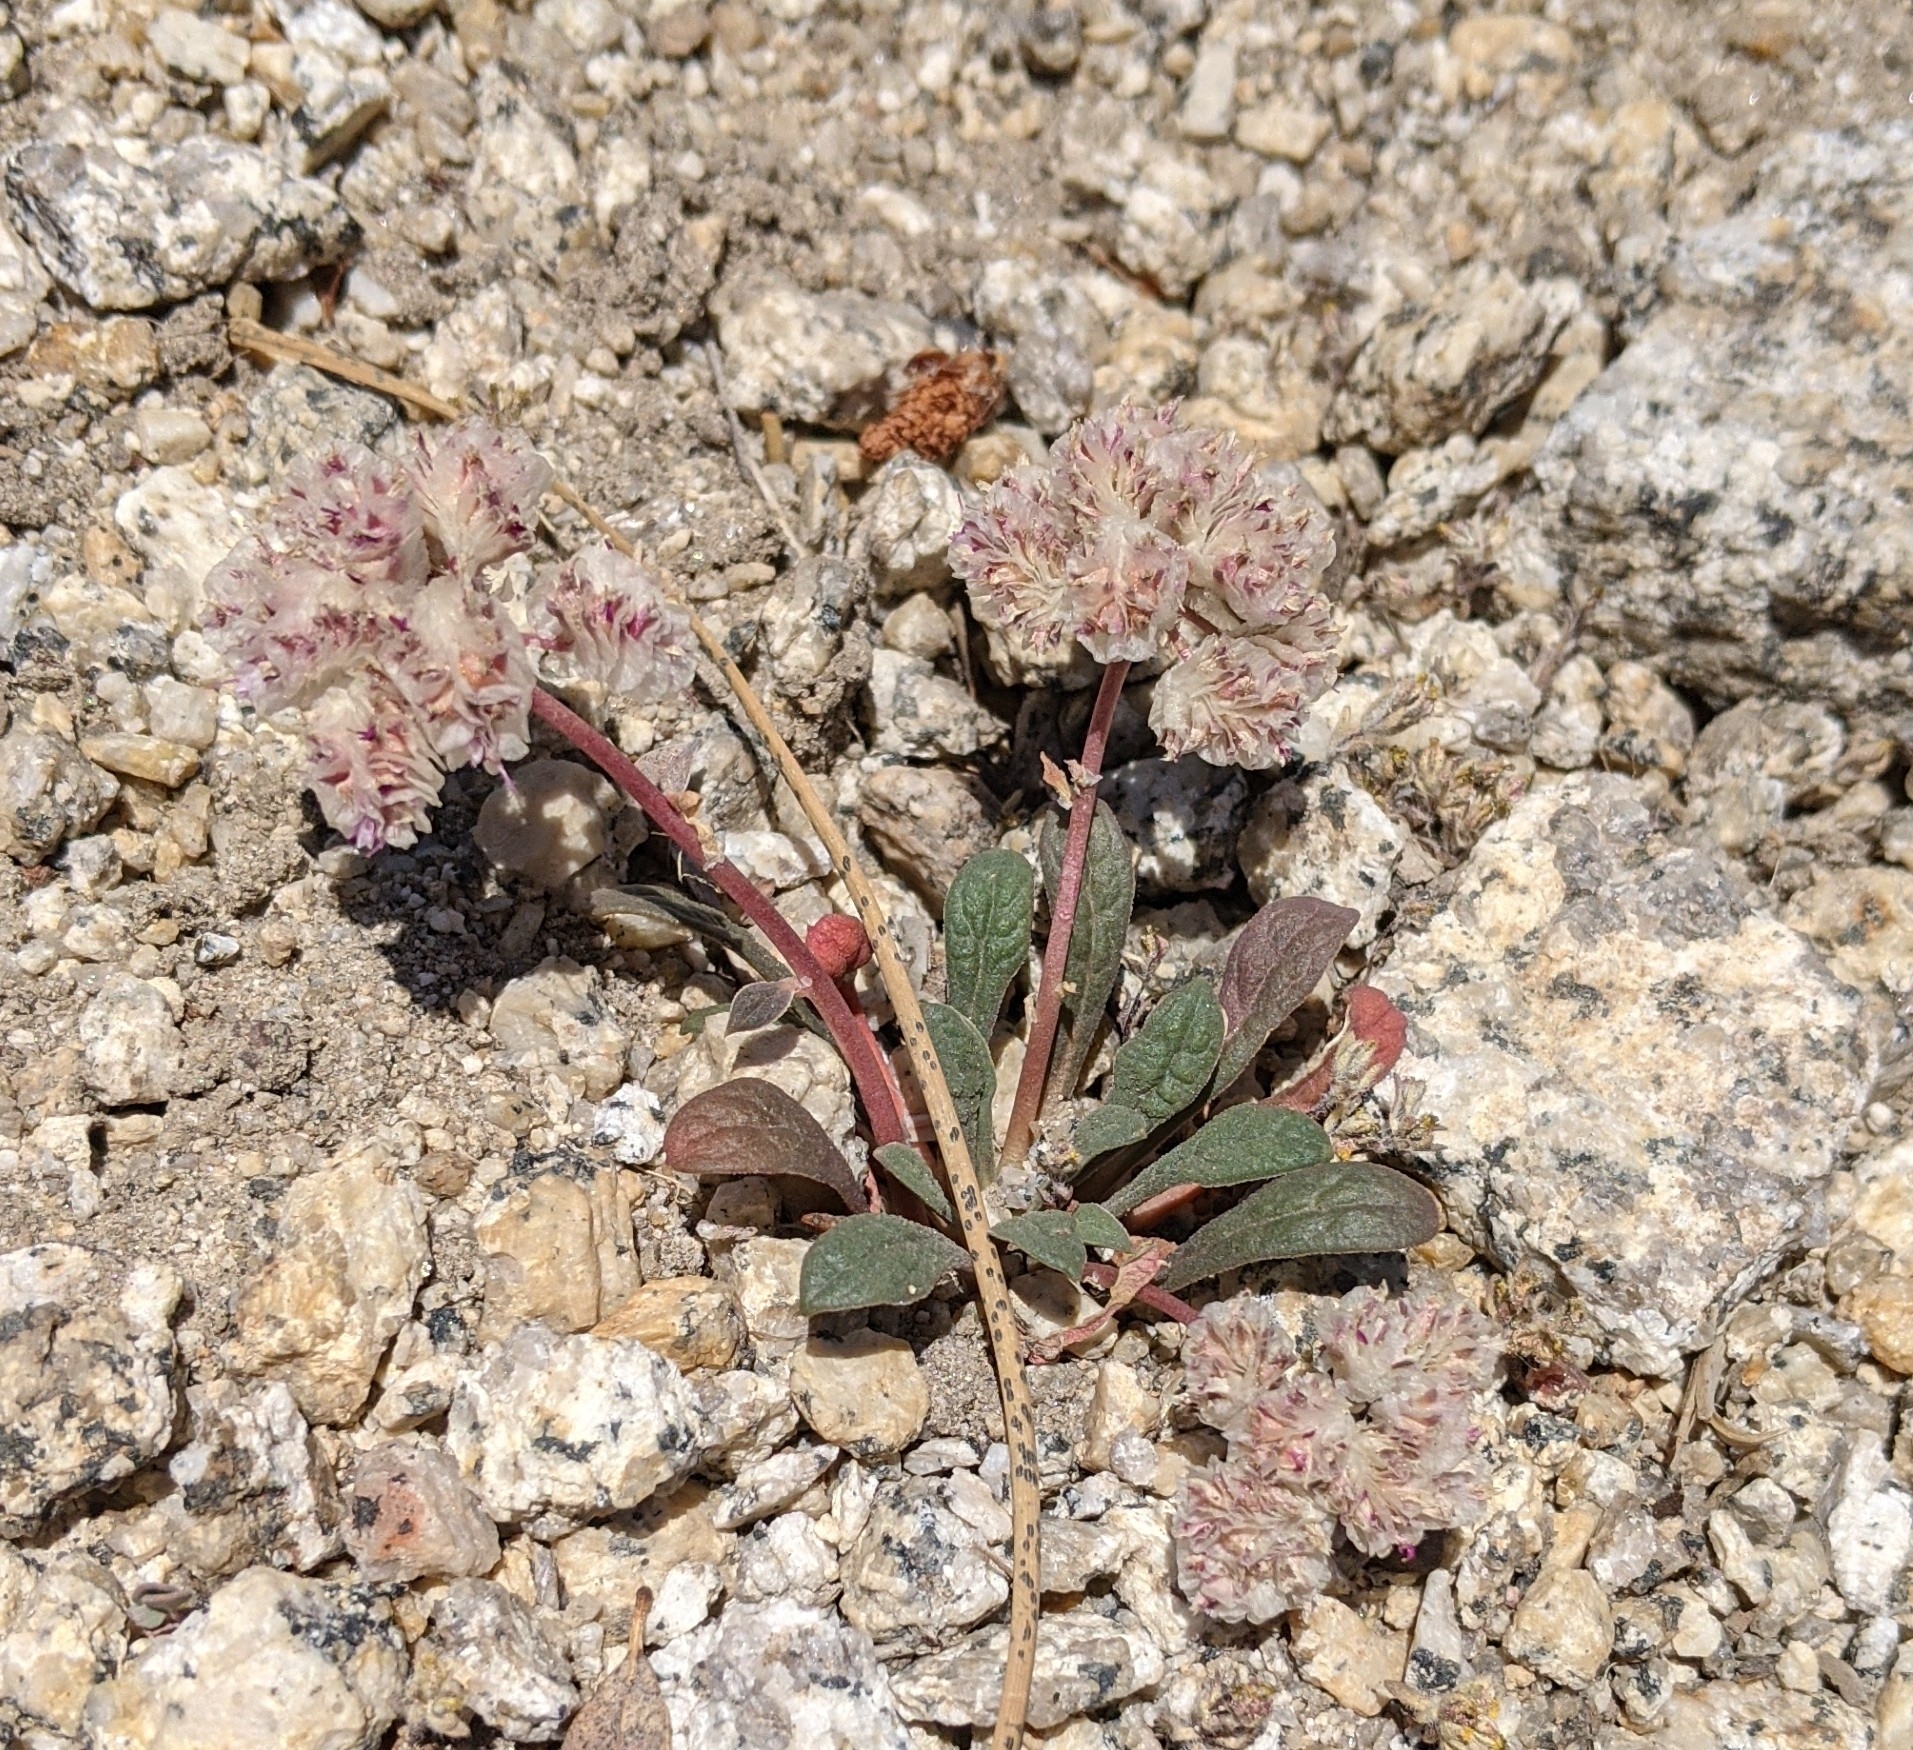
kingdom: Plantae
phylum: Tracheophyta
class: Magnoliopsida
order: Caryophyllales
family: Montiaceae
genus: Calyptridium
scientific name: Calyptridium monospermum
